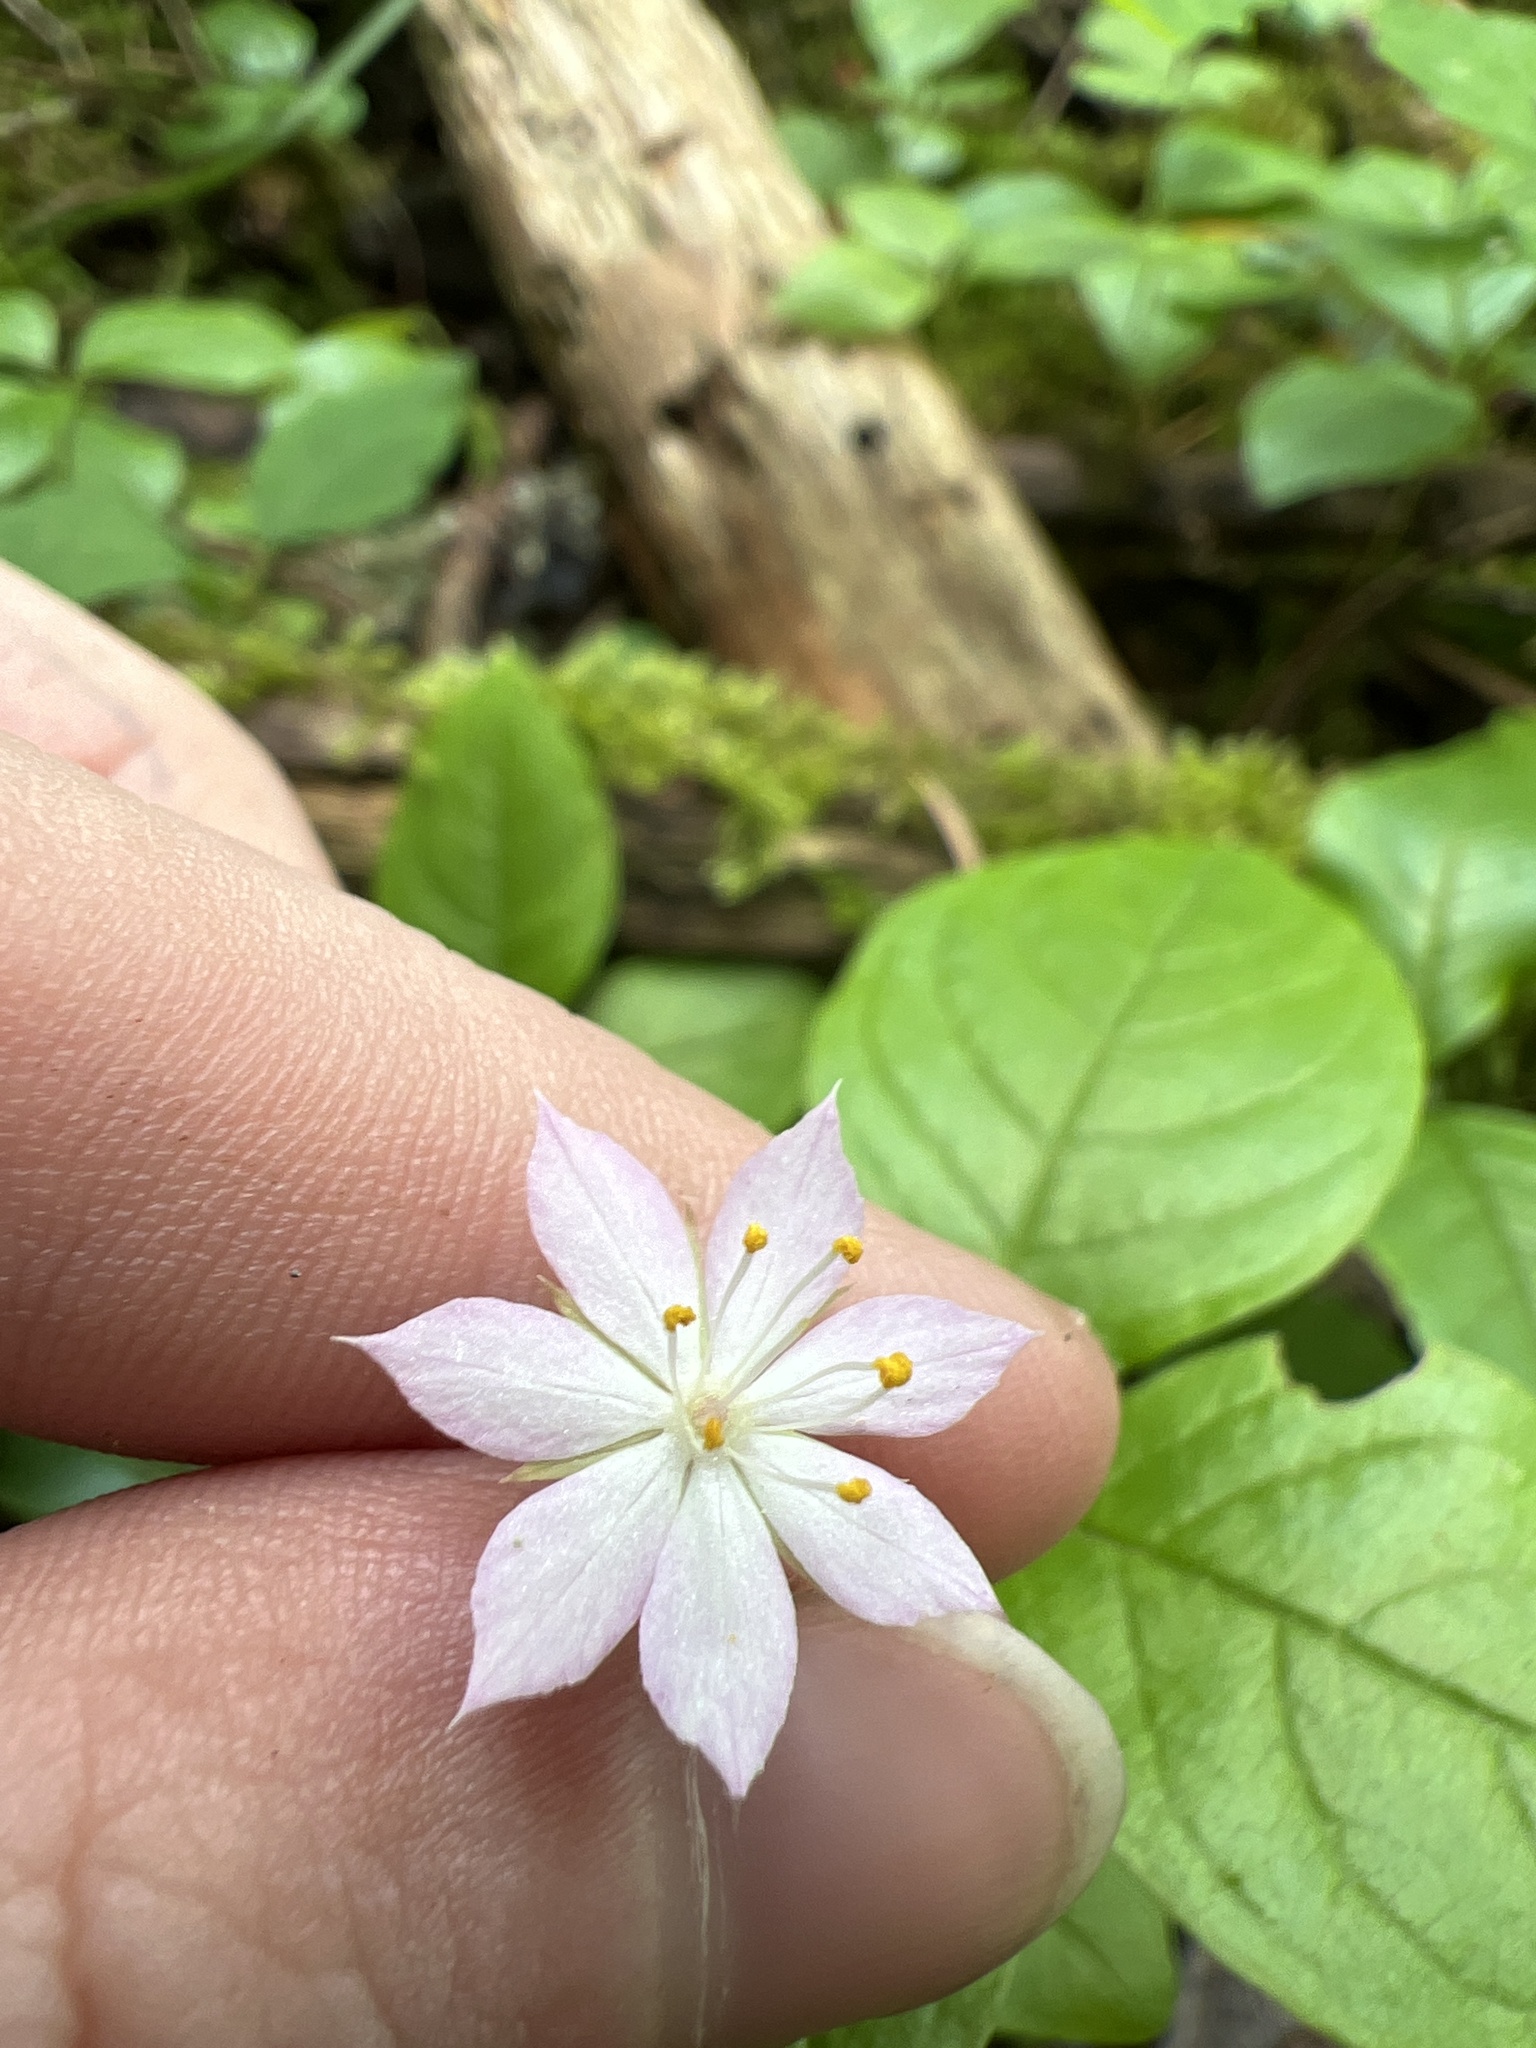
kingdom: Plantae
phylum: Tracheophyta
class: Magnoliopsida
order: Ericales
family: Primulaceae
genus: Lysimachia
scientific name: Lysimachia latifolia
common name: Pacific starflower
